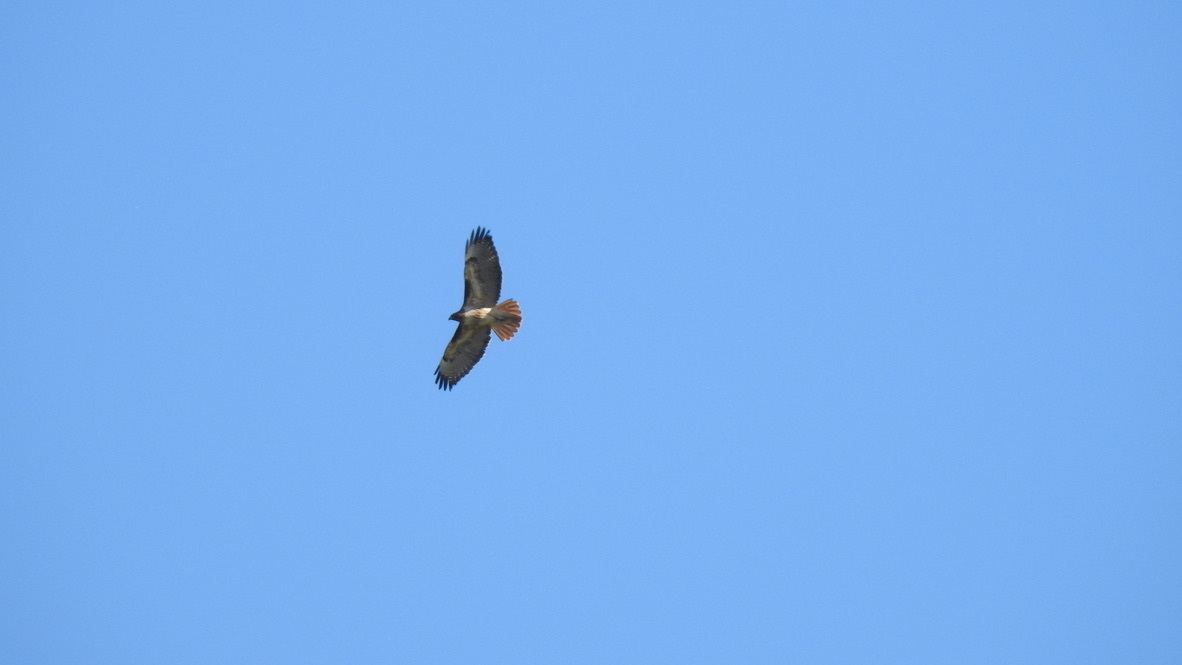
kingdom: Animalia
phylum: Chordata
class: Aves
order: Accipitriformes
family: Accipitridae
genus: Buteo
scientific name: Buteo jamaicensis
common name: Red-tailed hawk
